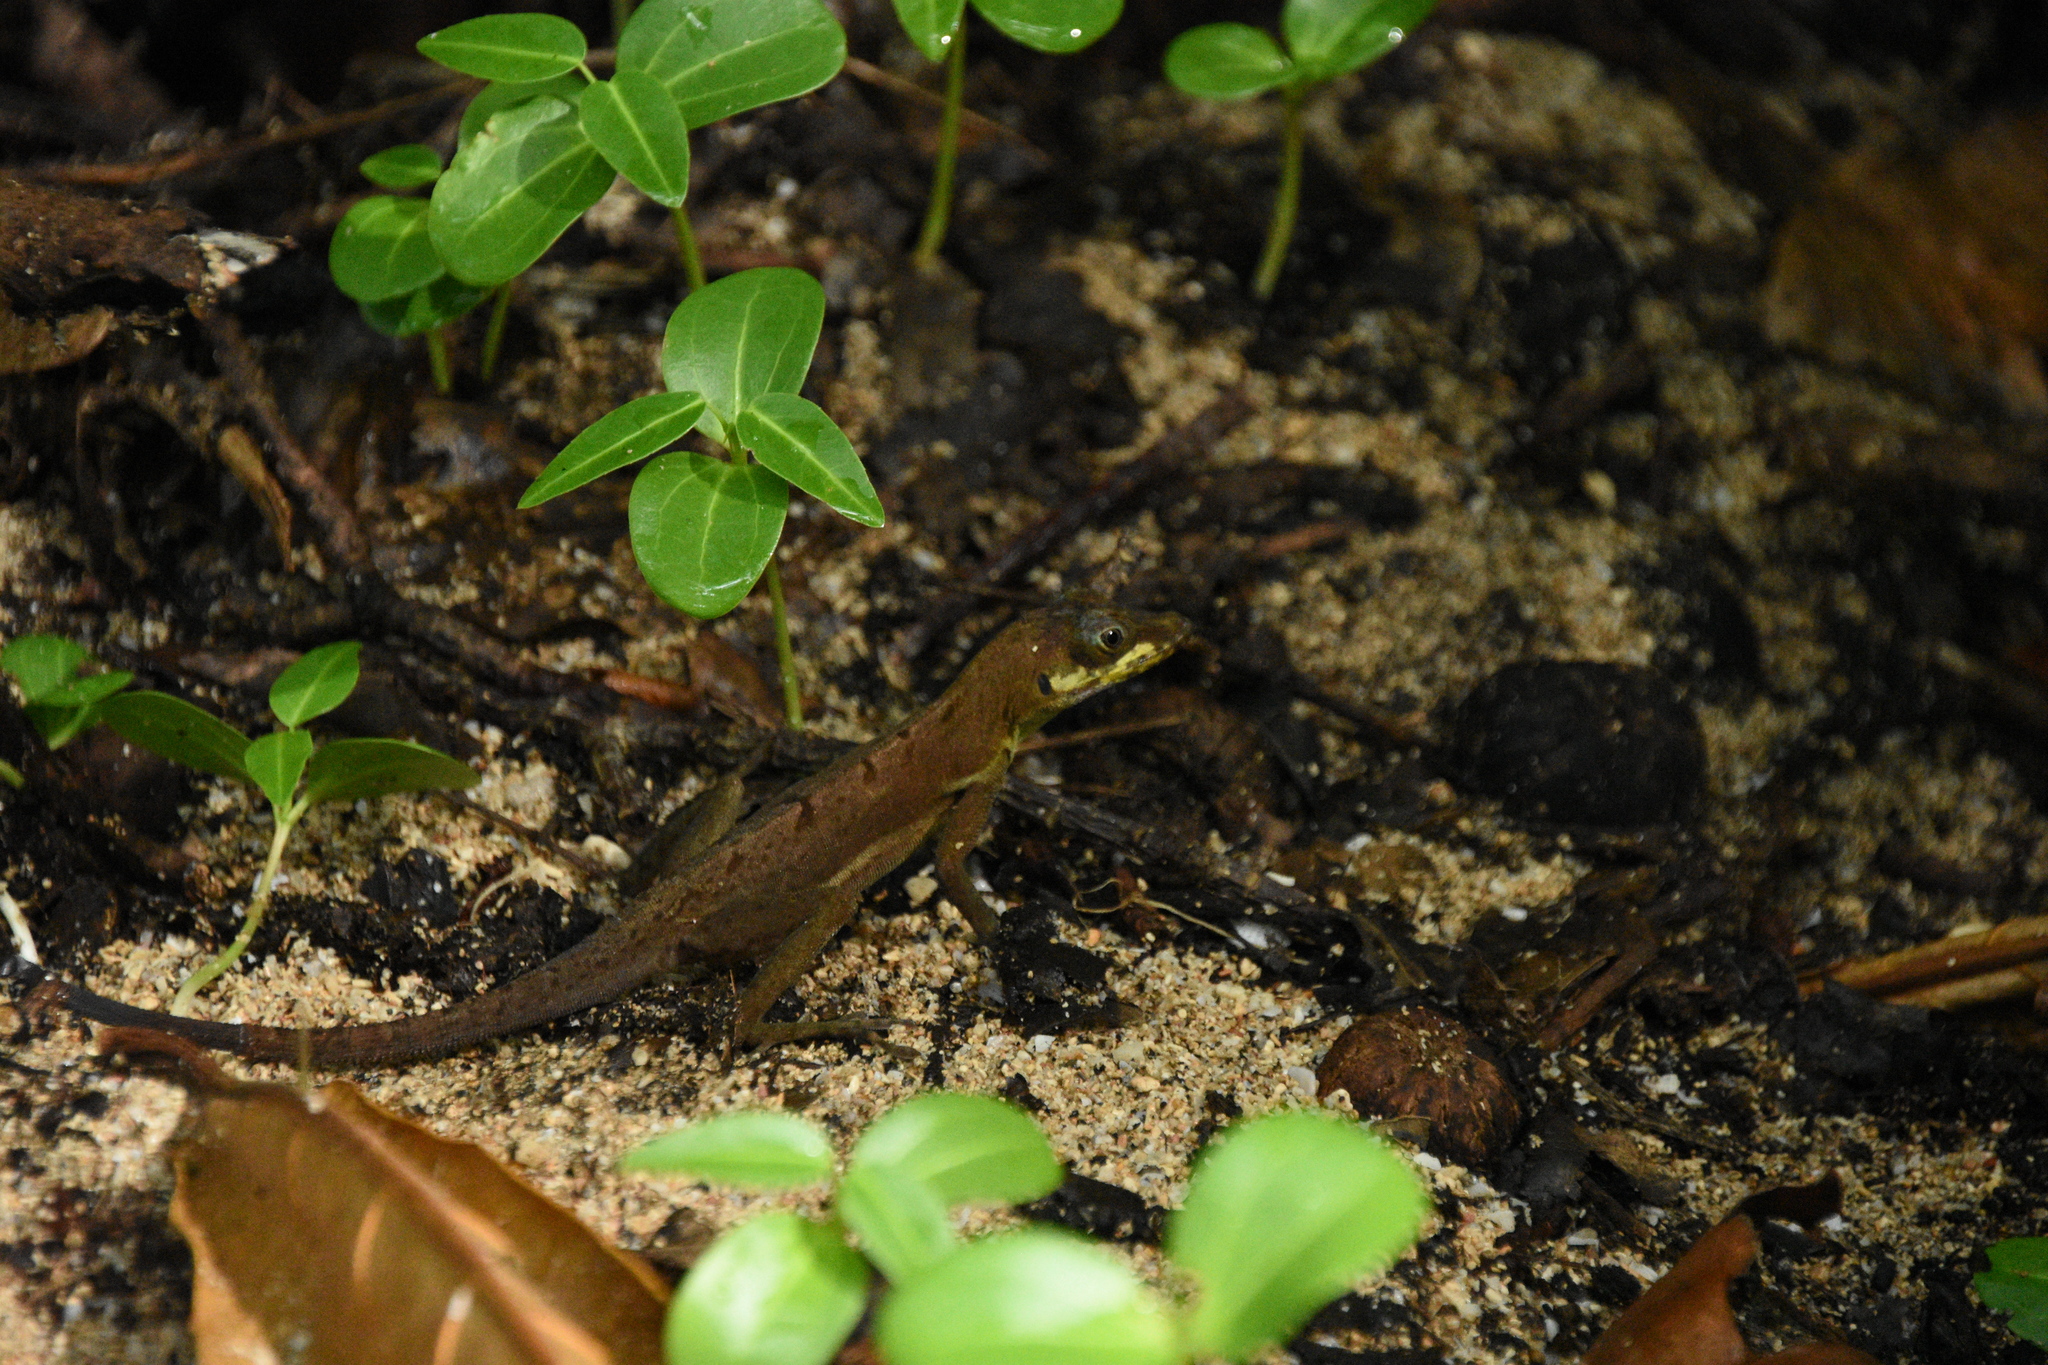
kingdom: Animalia
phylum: Chordata
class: Squamata
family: Dactyloidae
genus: Anolis
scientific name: Anolis richardii
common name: Grenada tree anole
